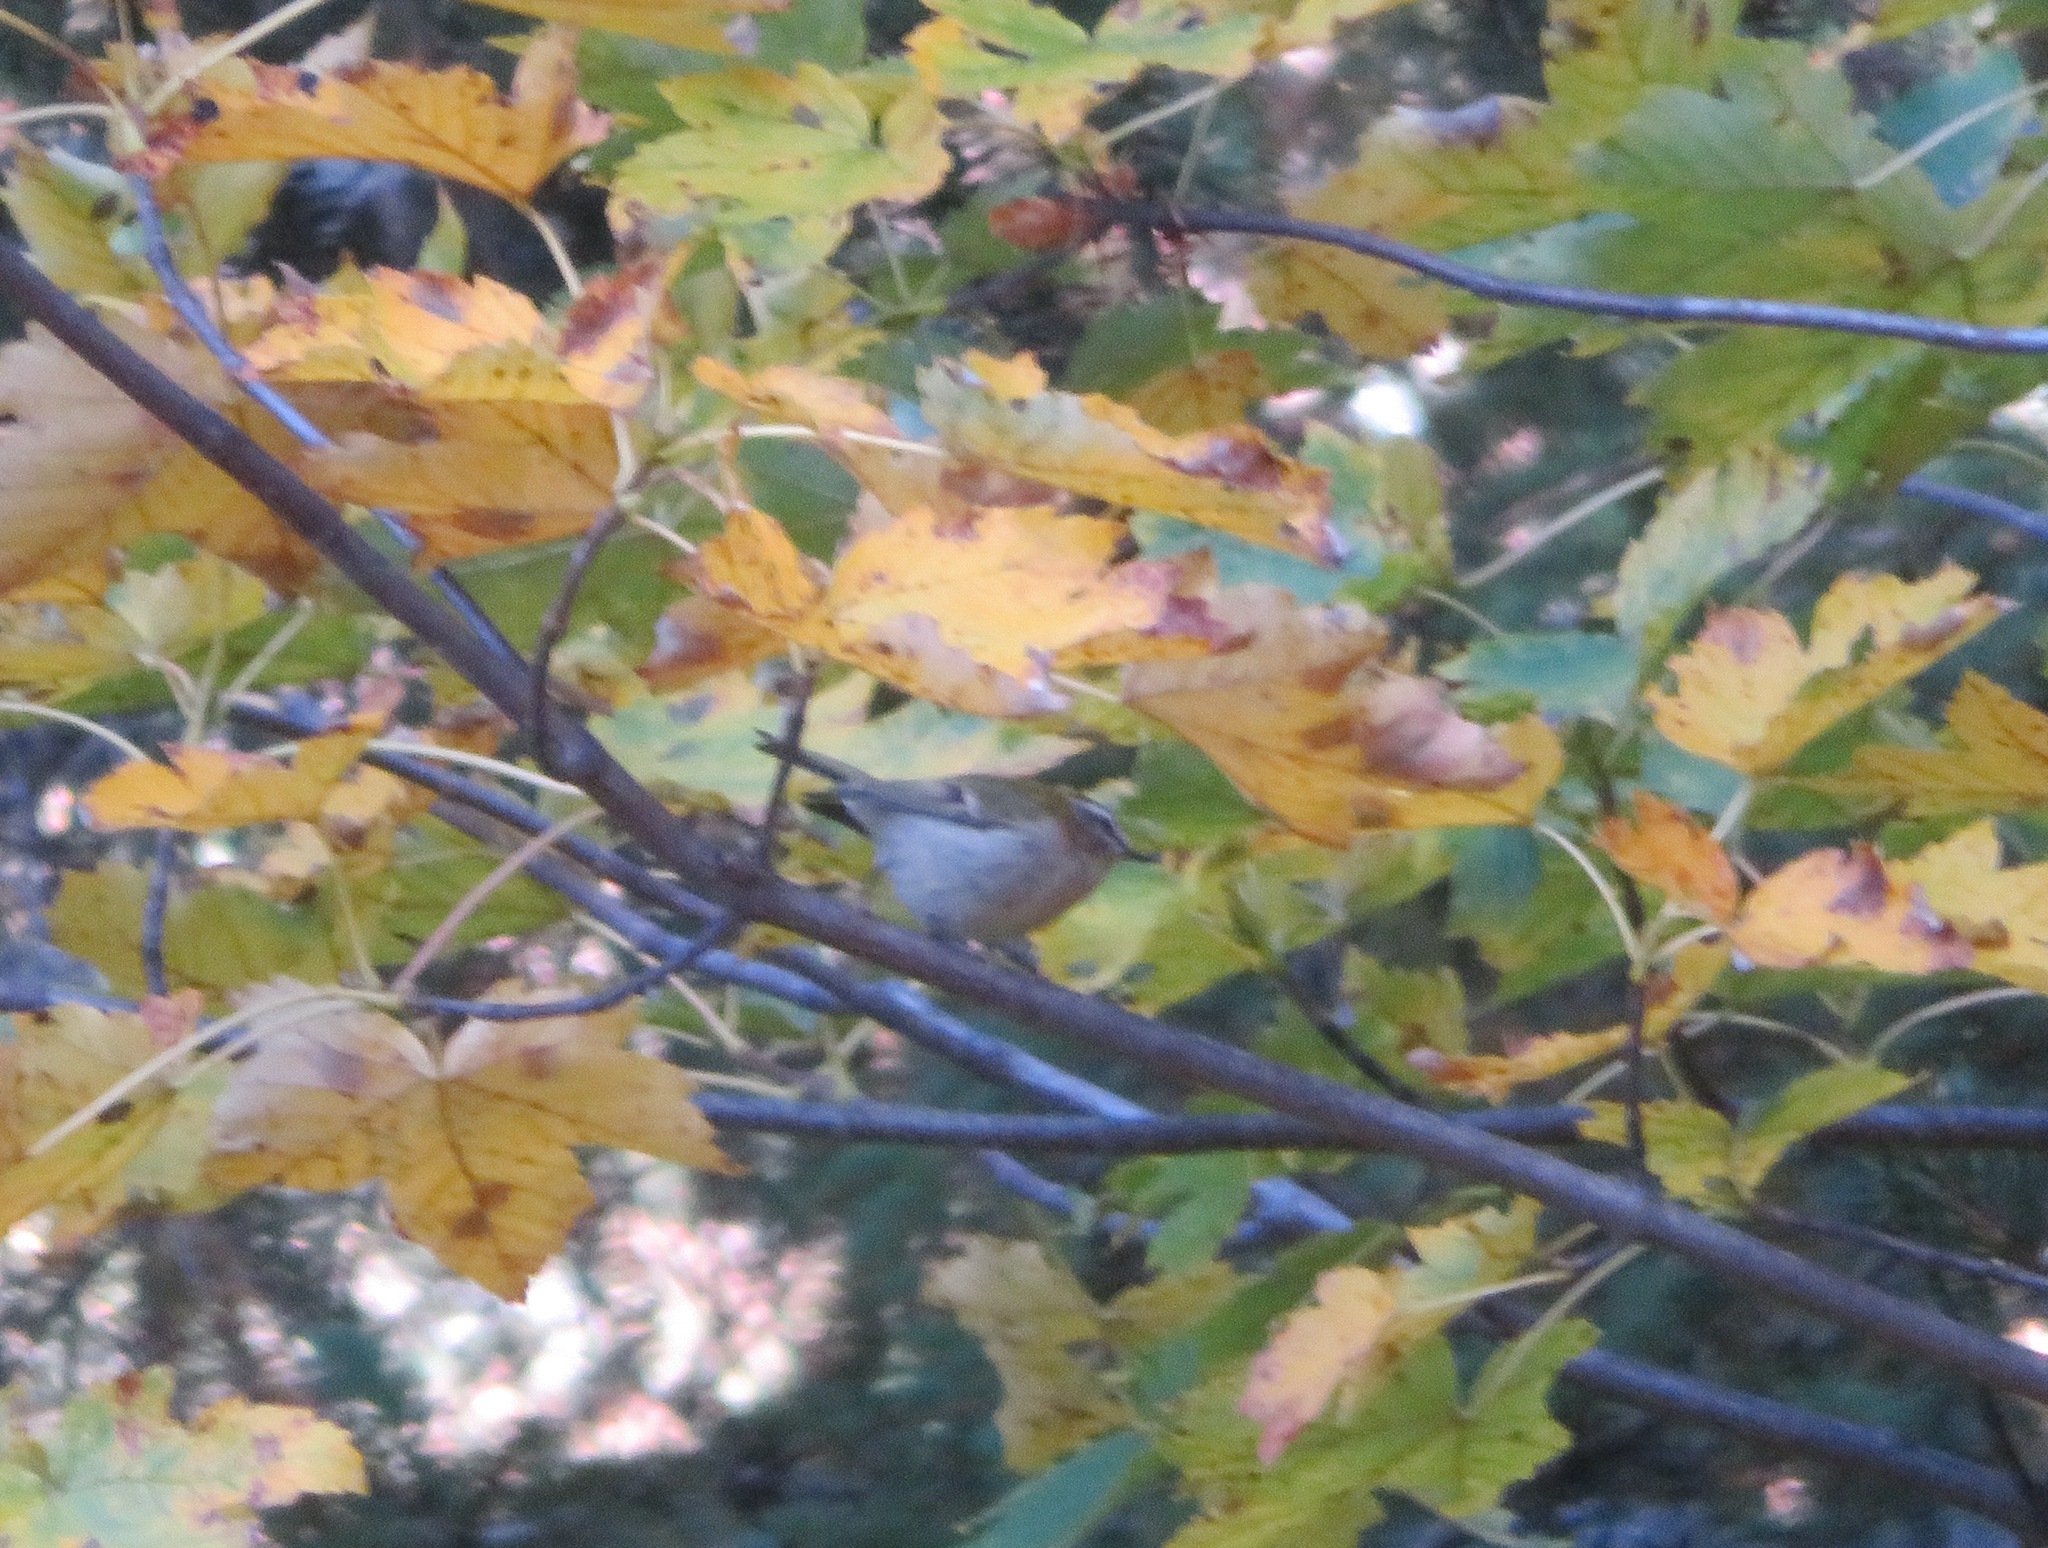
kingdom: Animalia
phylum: Chordata
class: Aves
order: Passeriformes
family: Regulidae
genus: Regulus
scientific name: Regulus ignicapilla
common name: Firecrest
